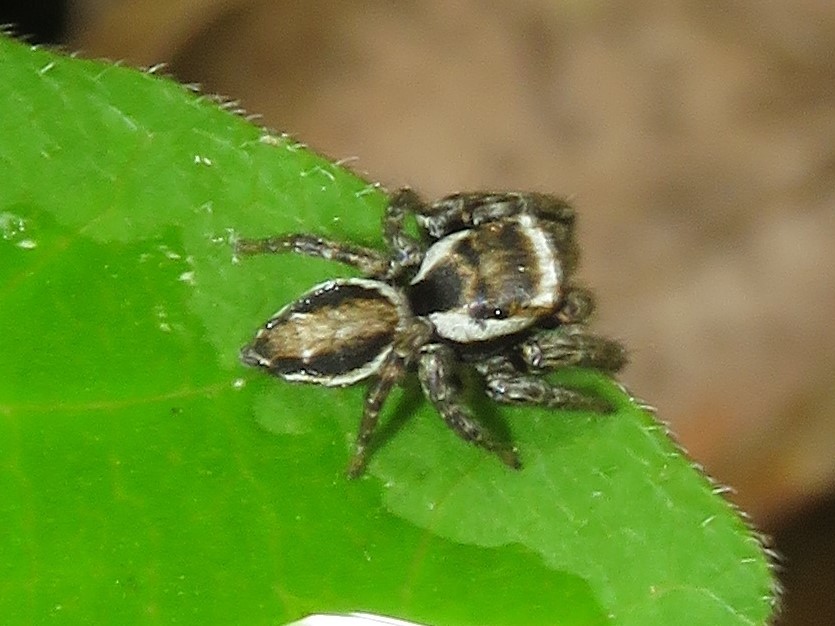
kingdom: Animalia
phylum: Arthropoda
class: Arachnida
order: Araneae
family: Salticidae
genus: Evarcha
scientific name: Evarcha hoyi
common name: Hoy's jumping spider
